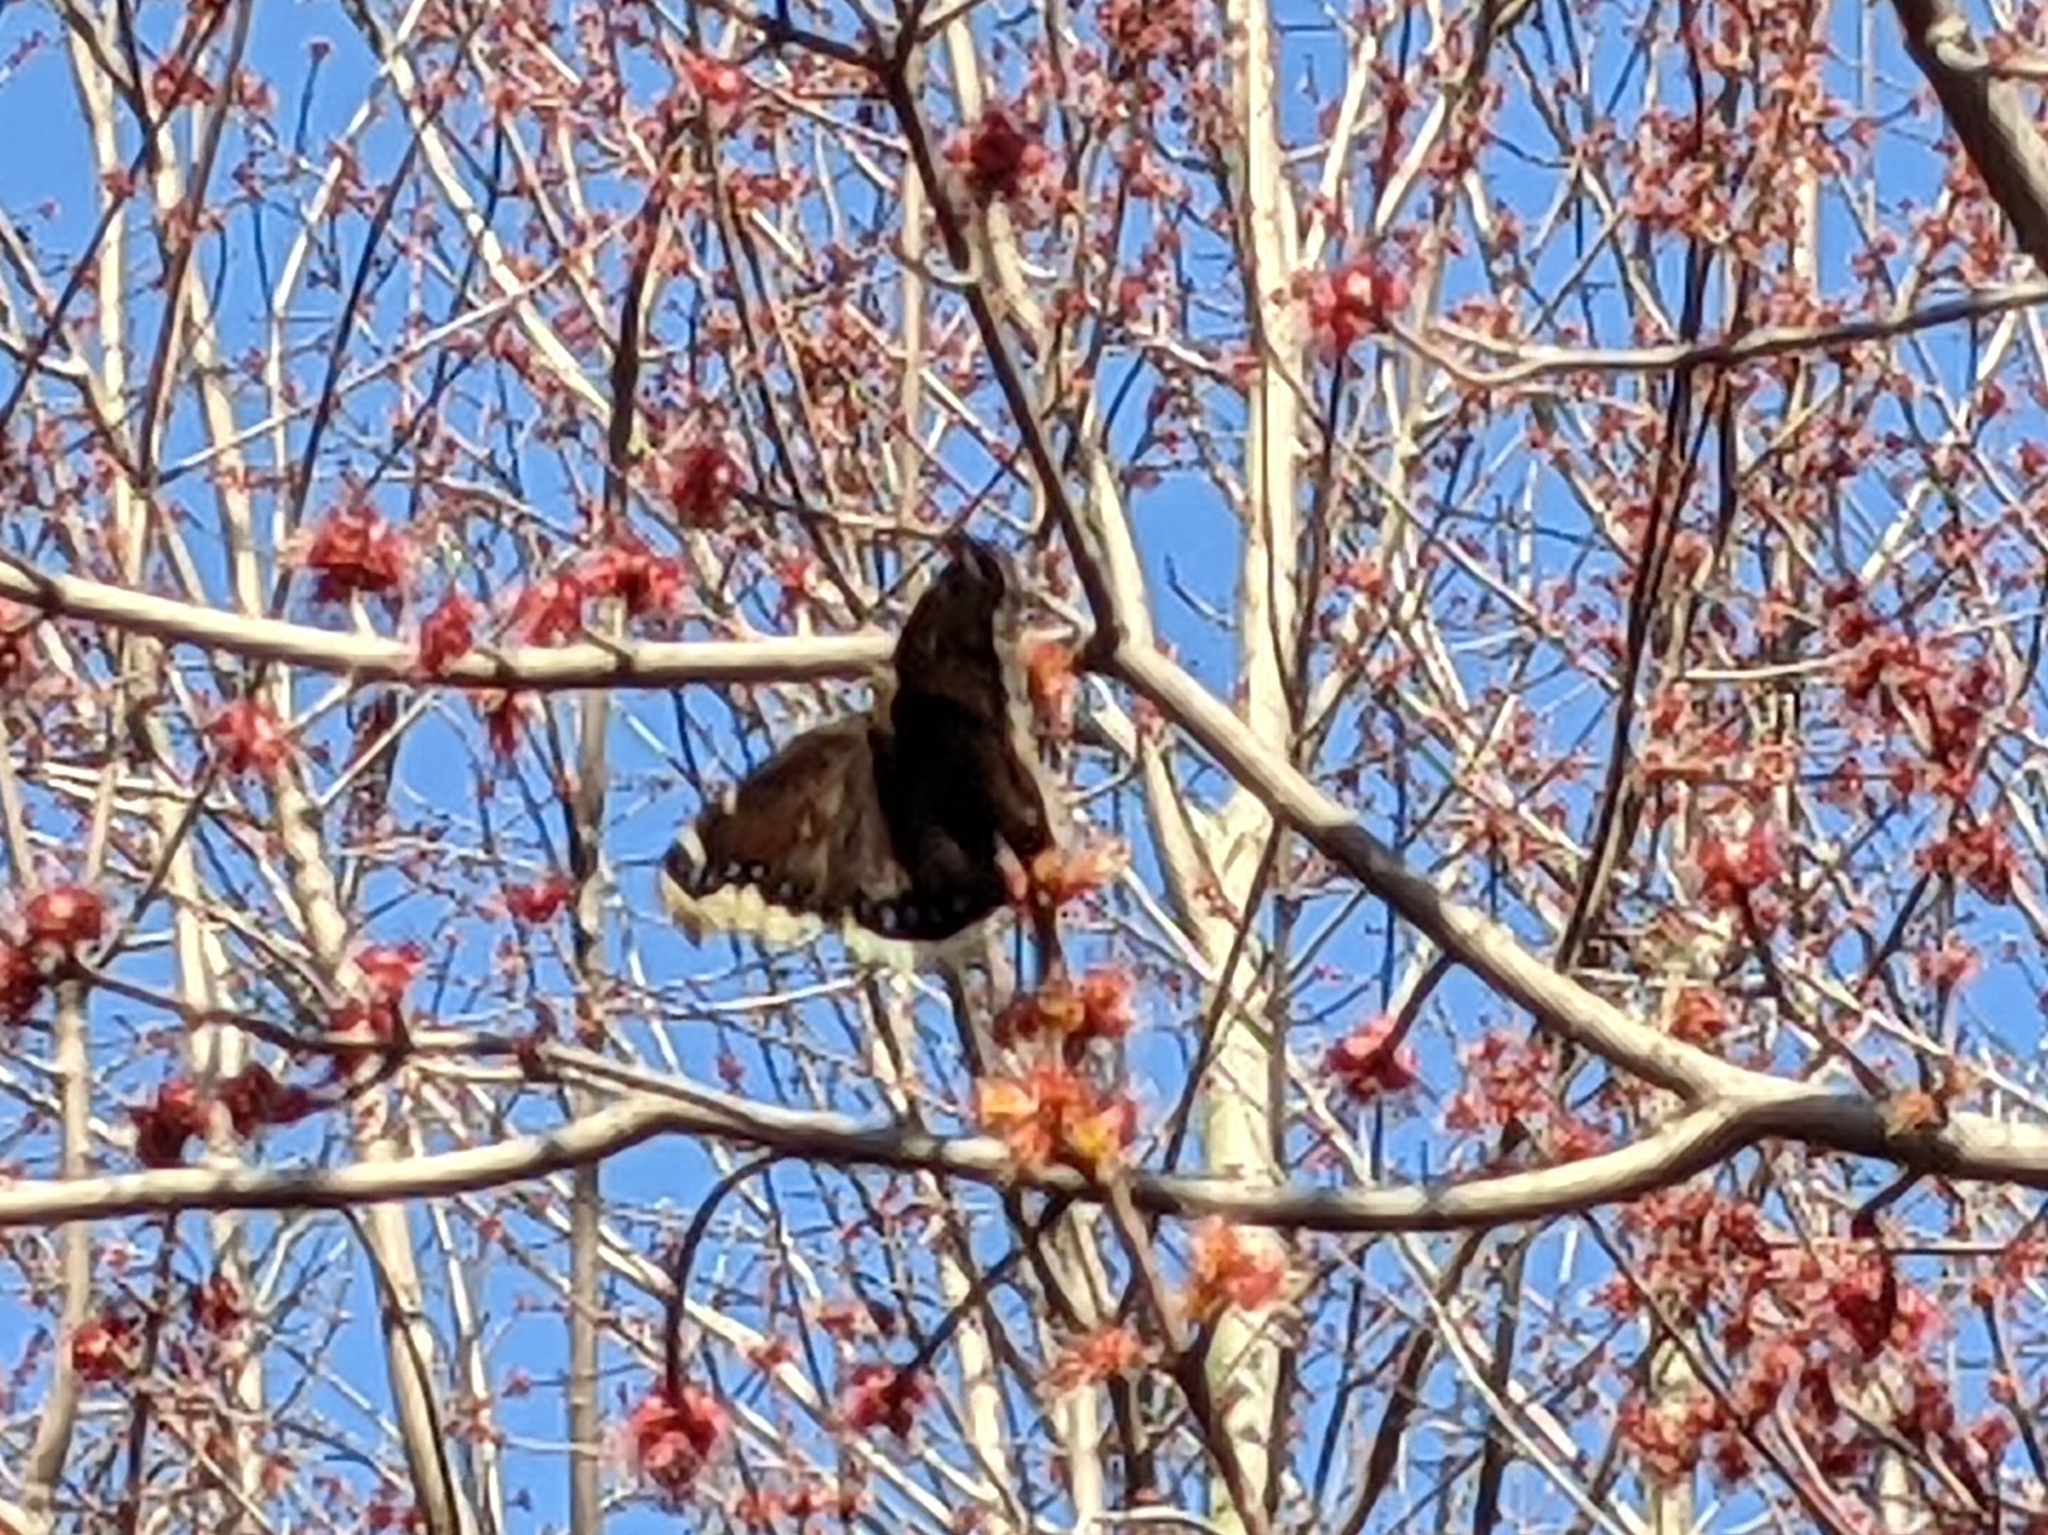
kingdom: Animalia
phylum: Arthropoda
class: Insecta
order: Lepidoptera
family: Nymphalidae
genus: Nymphalis
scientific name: Nymphalis antiopa
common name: Camberwell beauty
